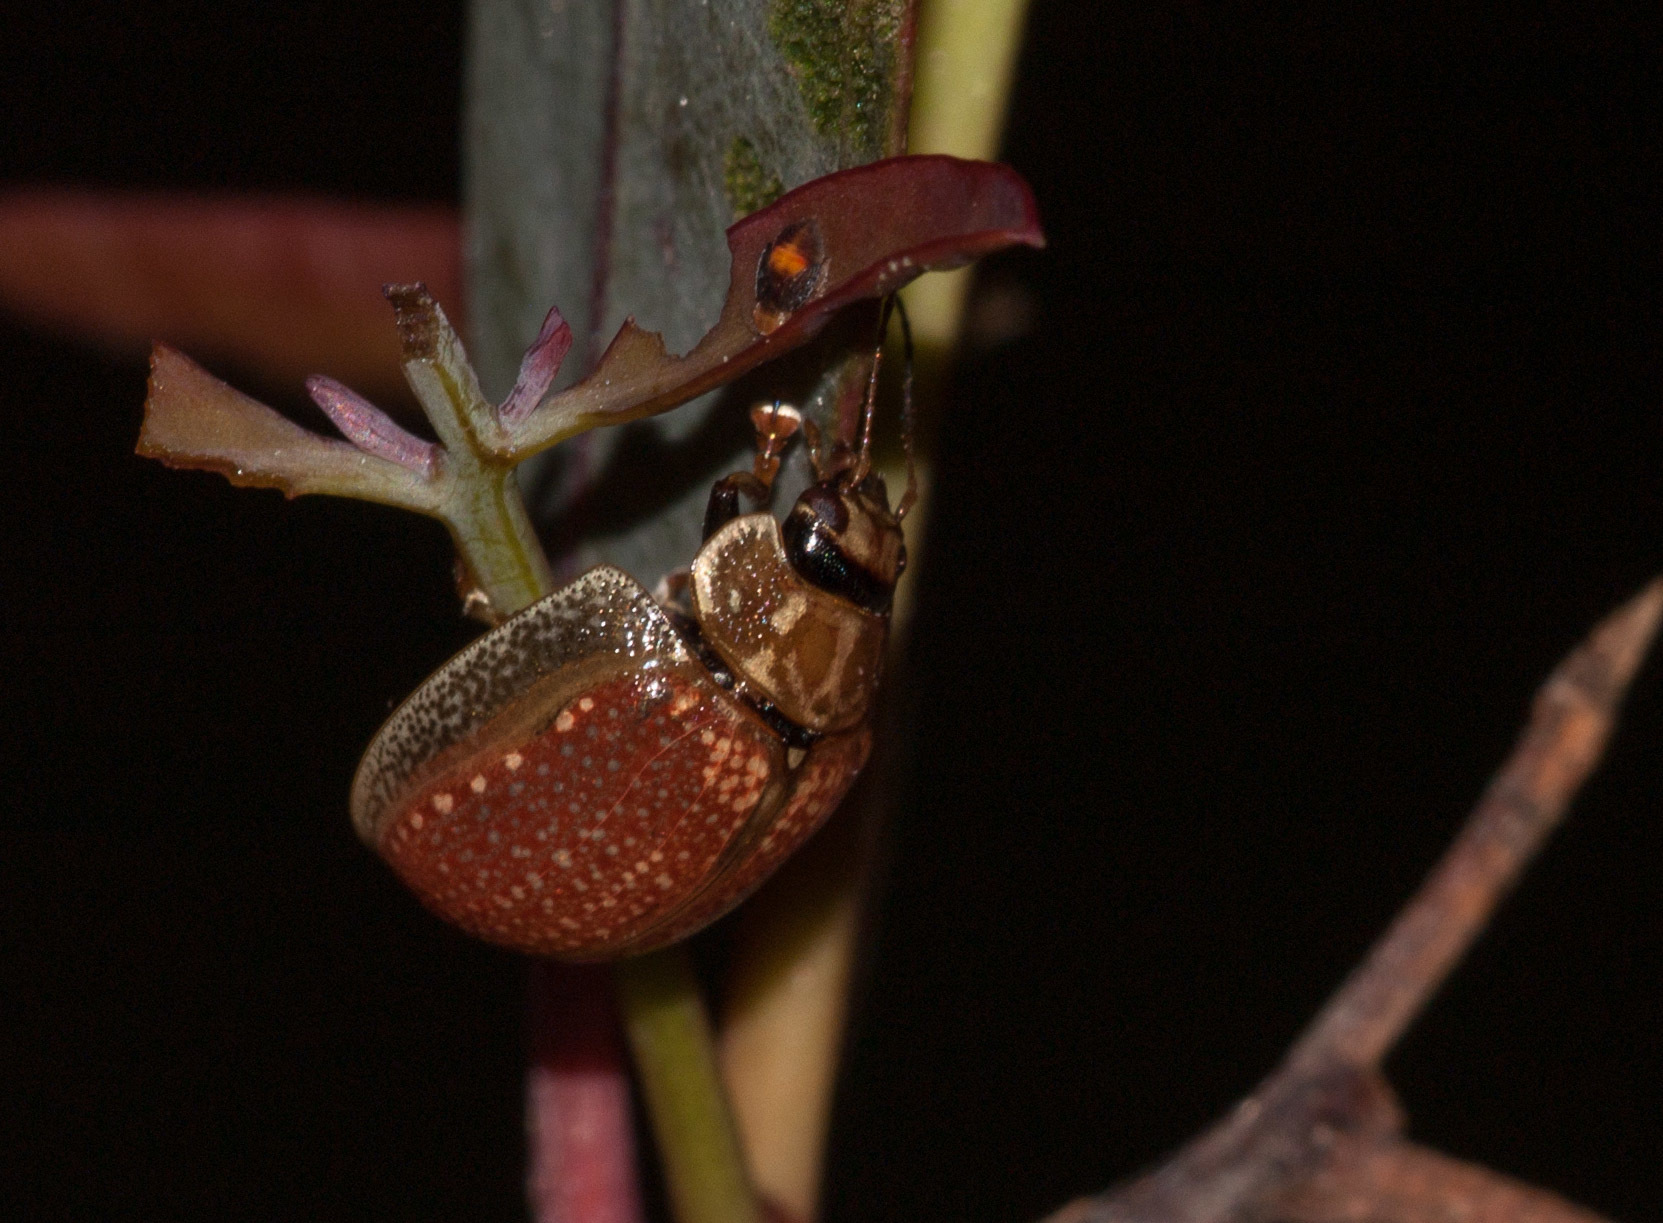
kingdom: Animalia
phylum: Arthropoda
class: Insecta
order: Coleoptera
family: Chrysomelidae
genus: Paropsisterna
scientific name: Paropsisterna cloelia
